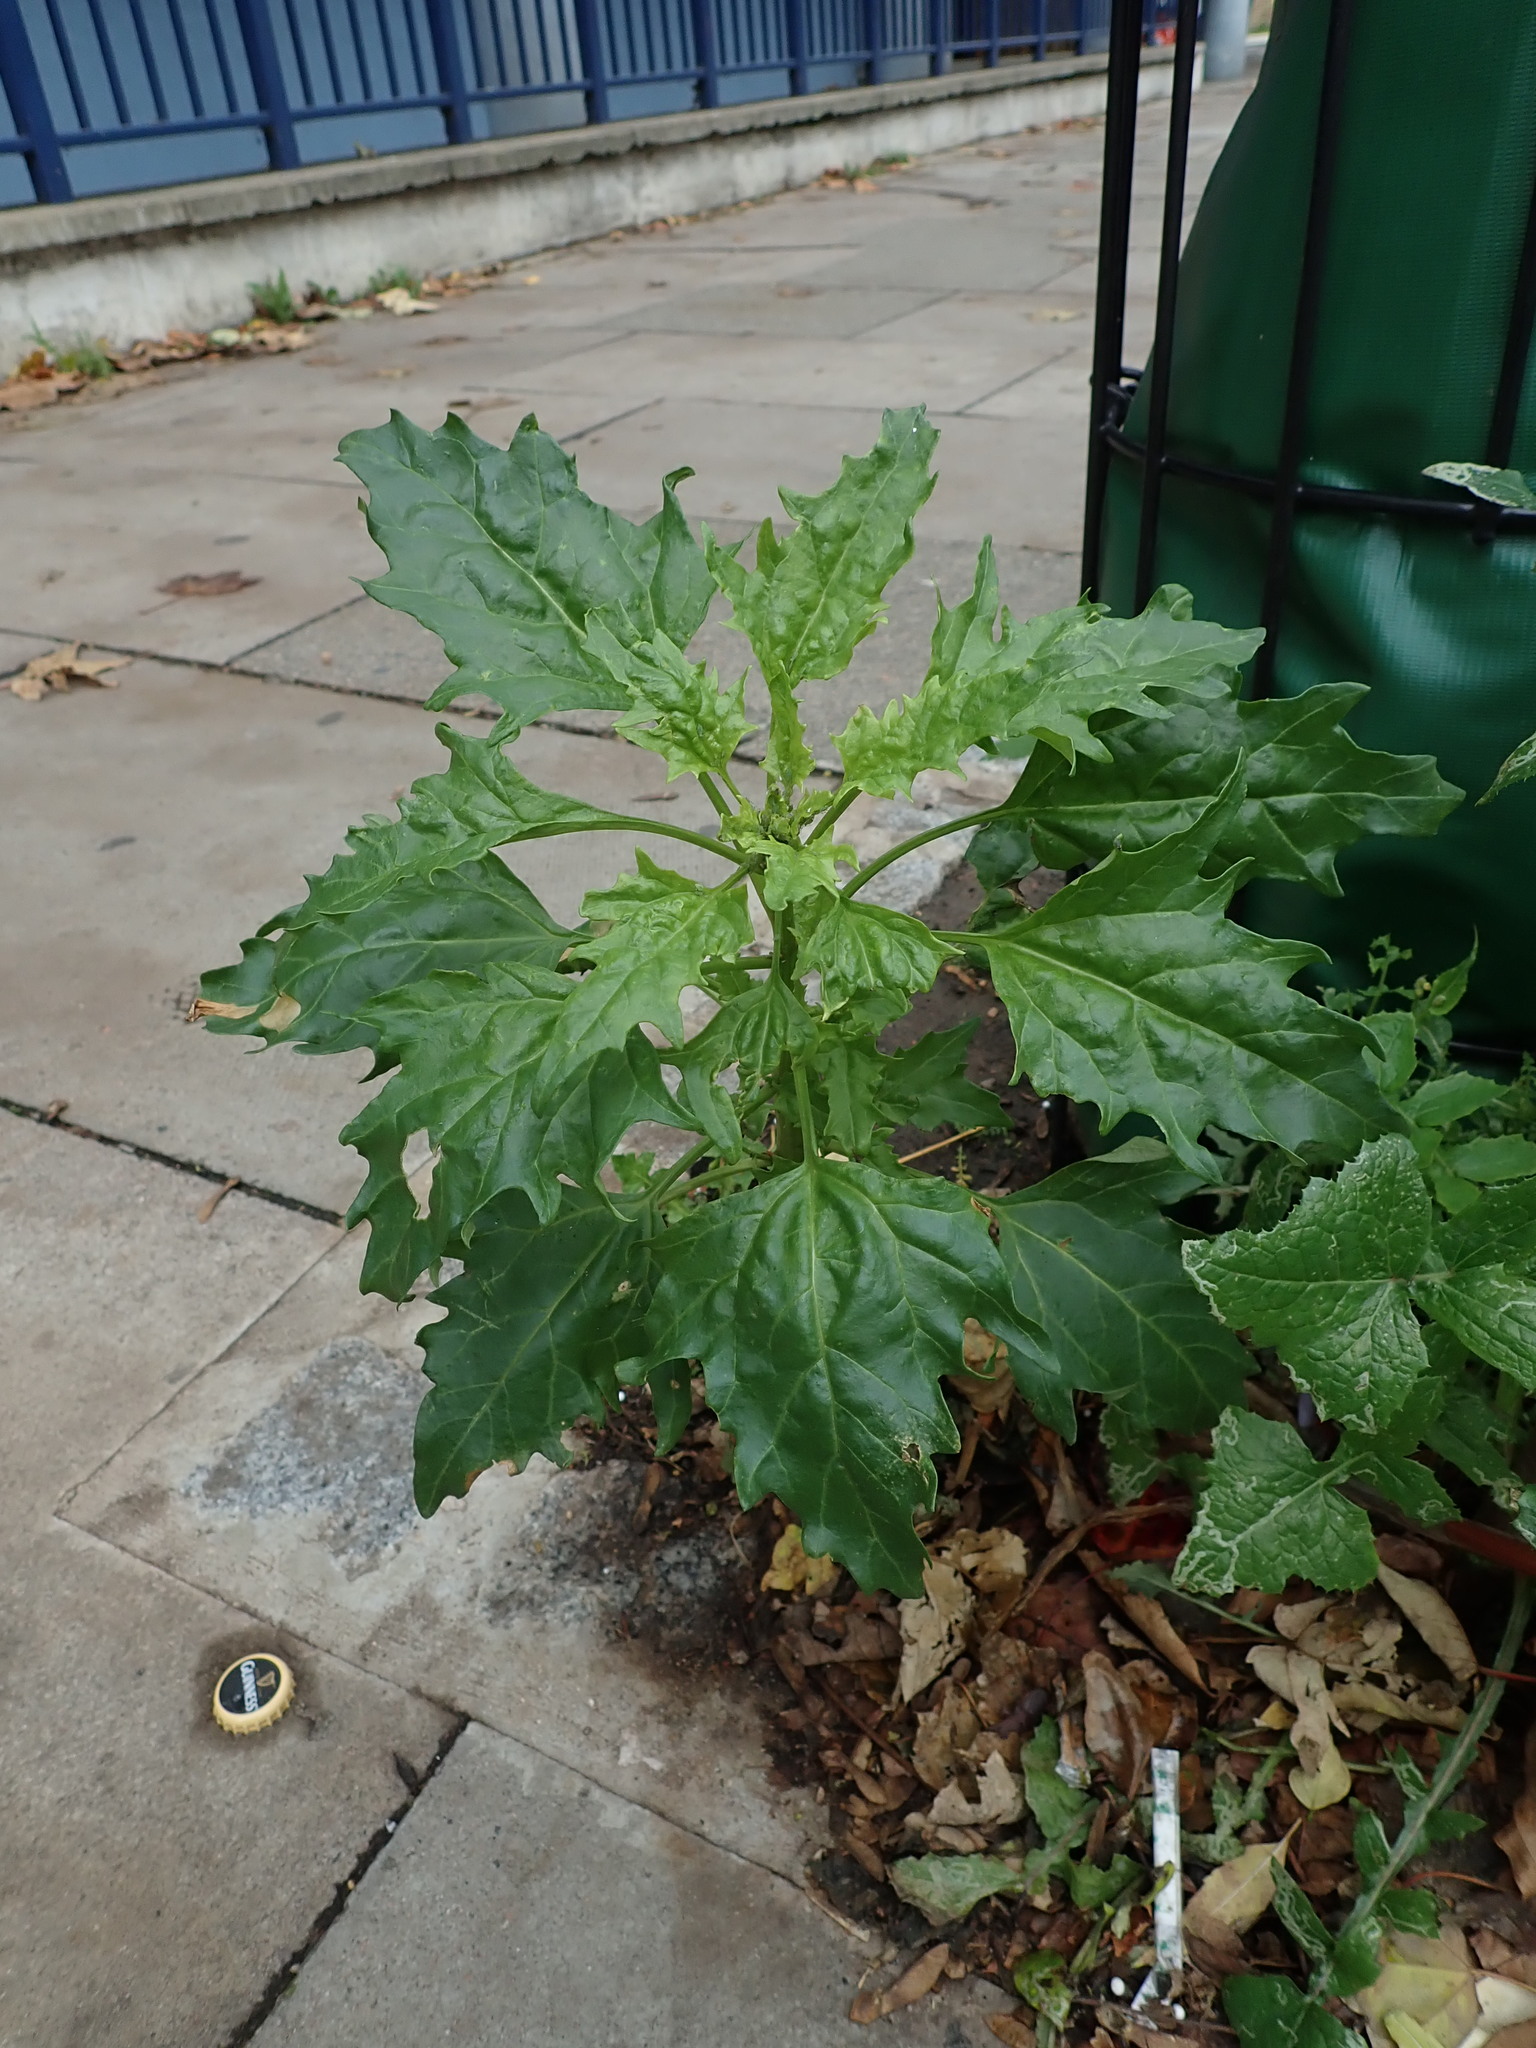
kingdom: Plantae
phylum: Tracheophyta
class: Magnoliopsida
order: Caryophyllales
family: Amaranthaceae
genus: Oxybasis
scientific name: Oxybasis rubra
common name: Red goosefoot
